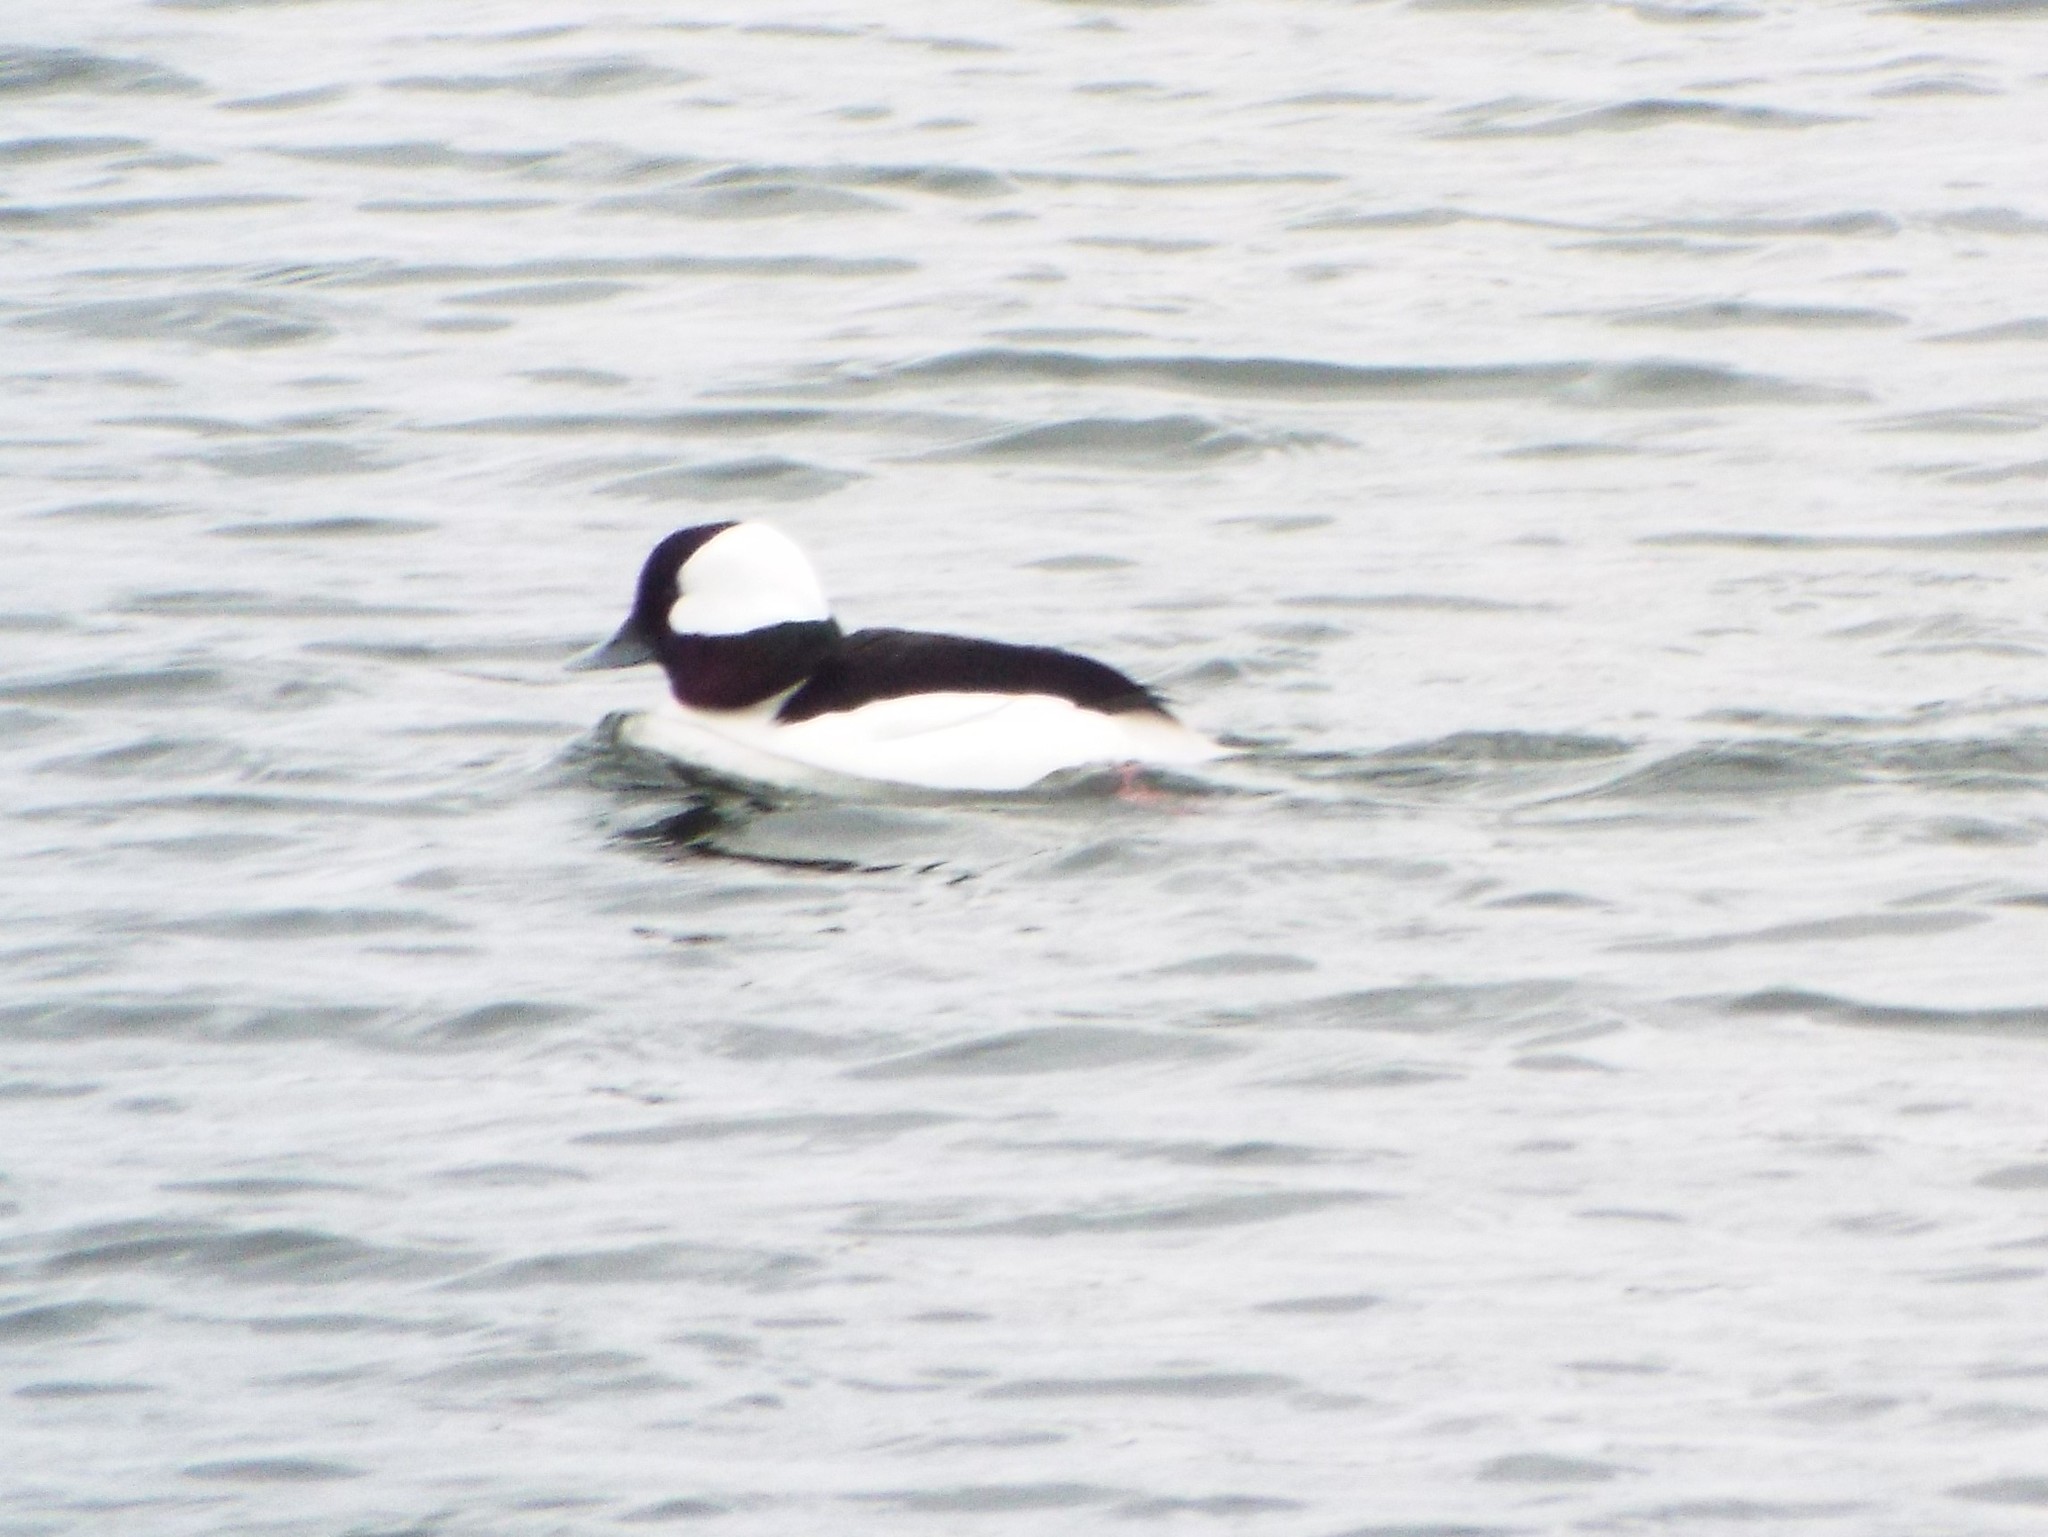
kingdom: Animalia
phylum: Chordata
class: Aves
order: Anseriformes
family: Anatidae
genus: Bucephala
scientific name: Bucephala albeola
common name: Bufflehead
